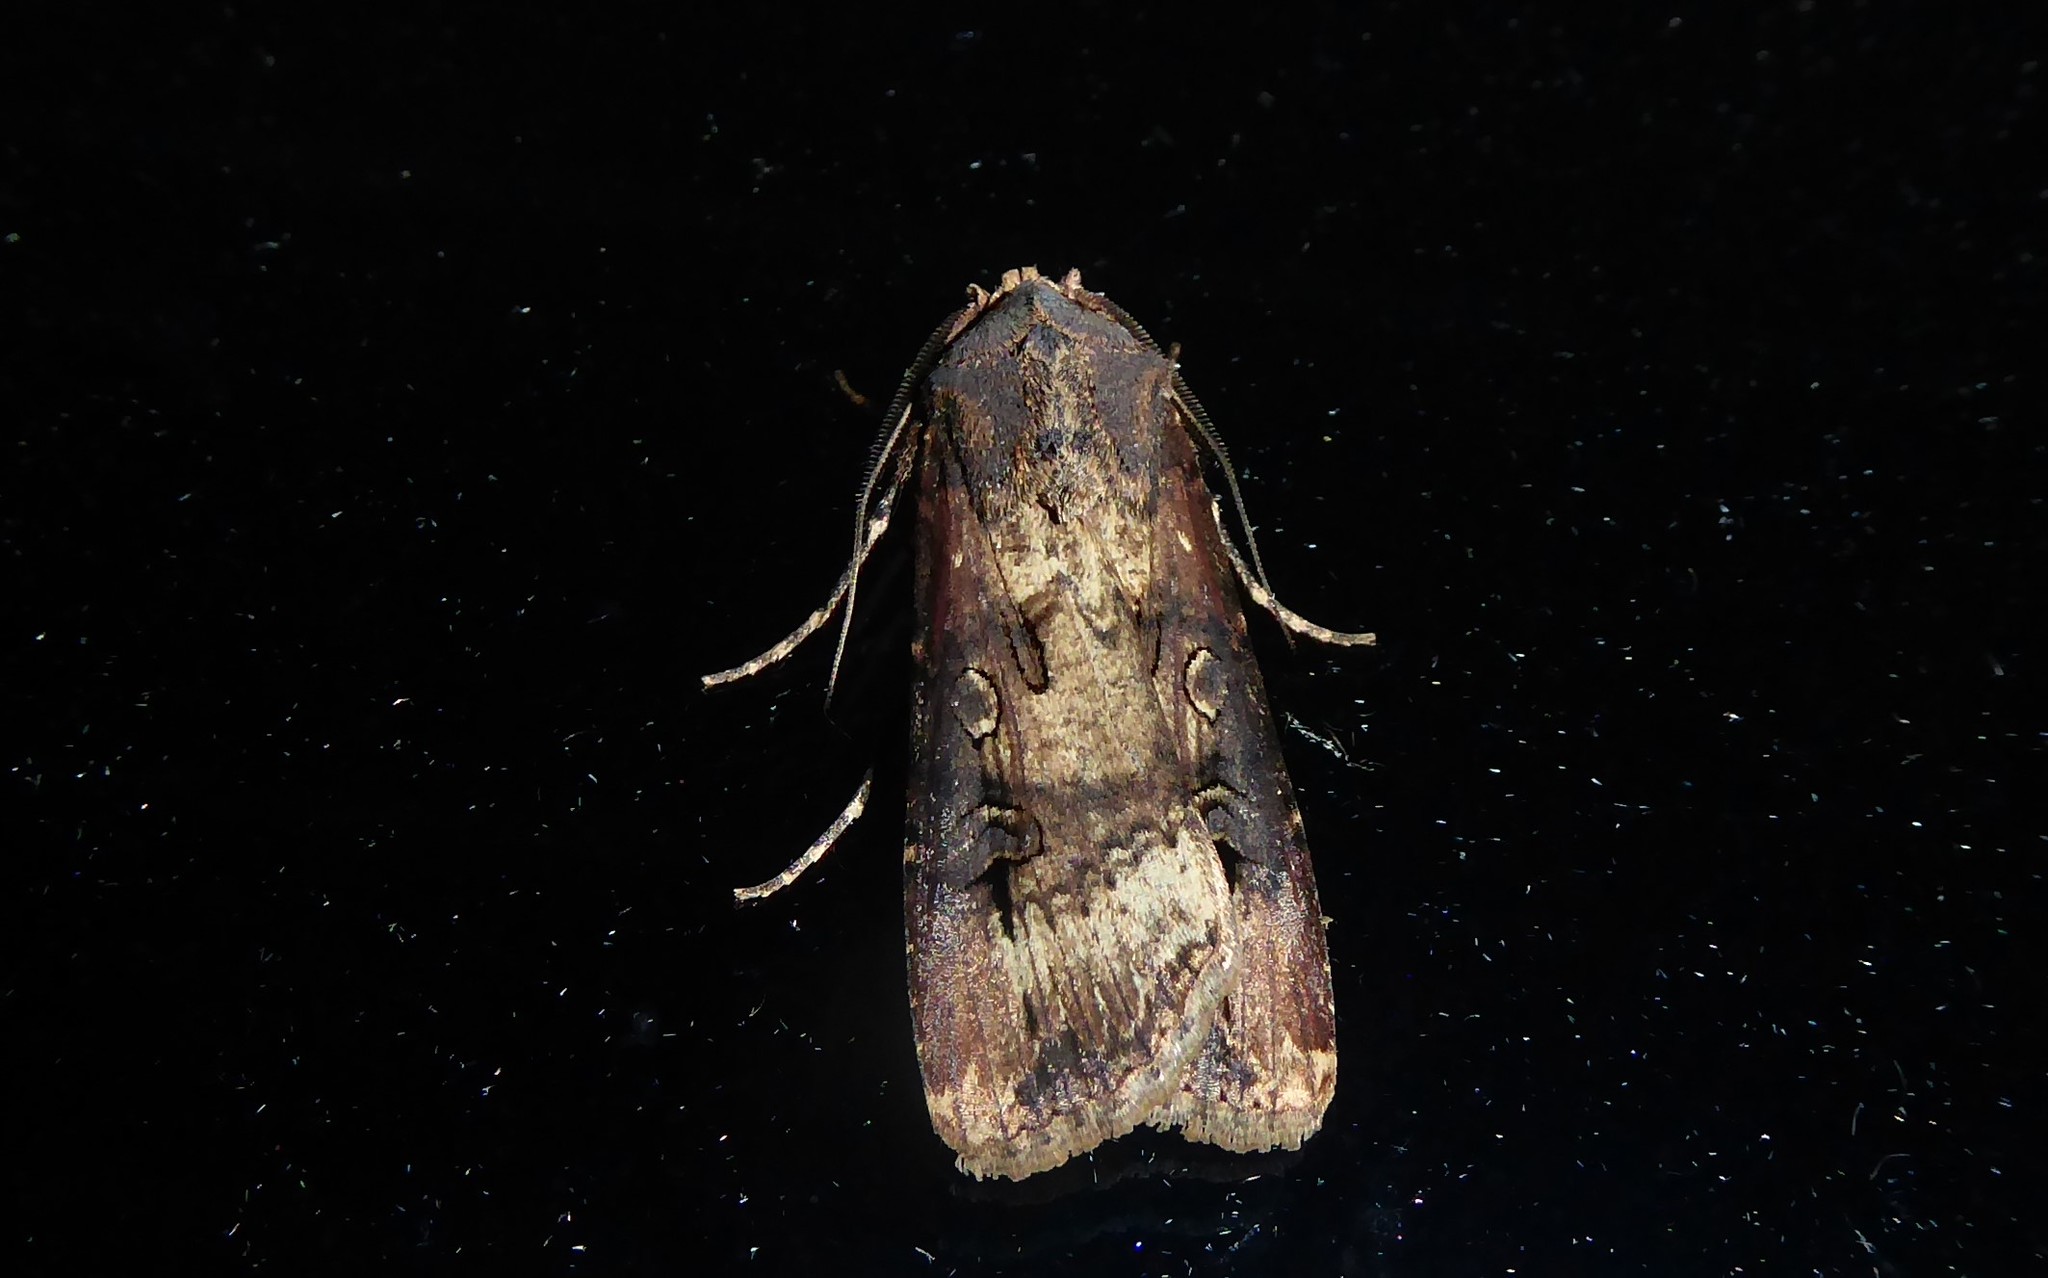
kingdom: Animalia
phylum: Arthropoda
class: Insecta
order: Lepidoptera
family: Noctuidae
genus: Agrotis
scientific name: Agrotis ipsilon
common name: Dark sword-grass
